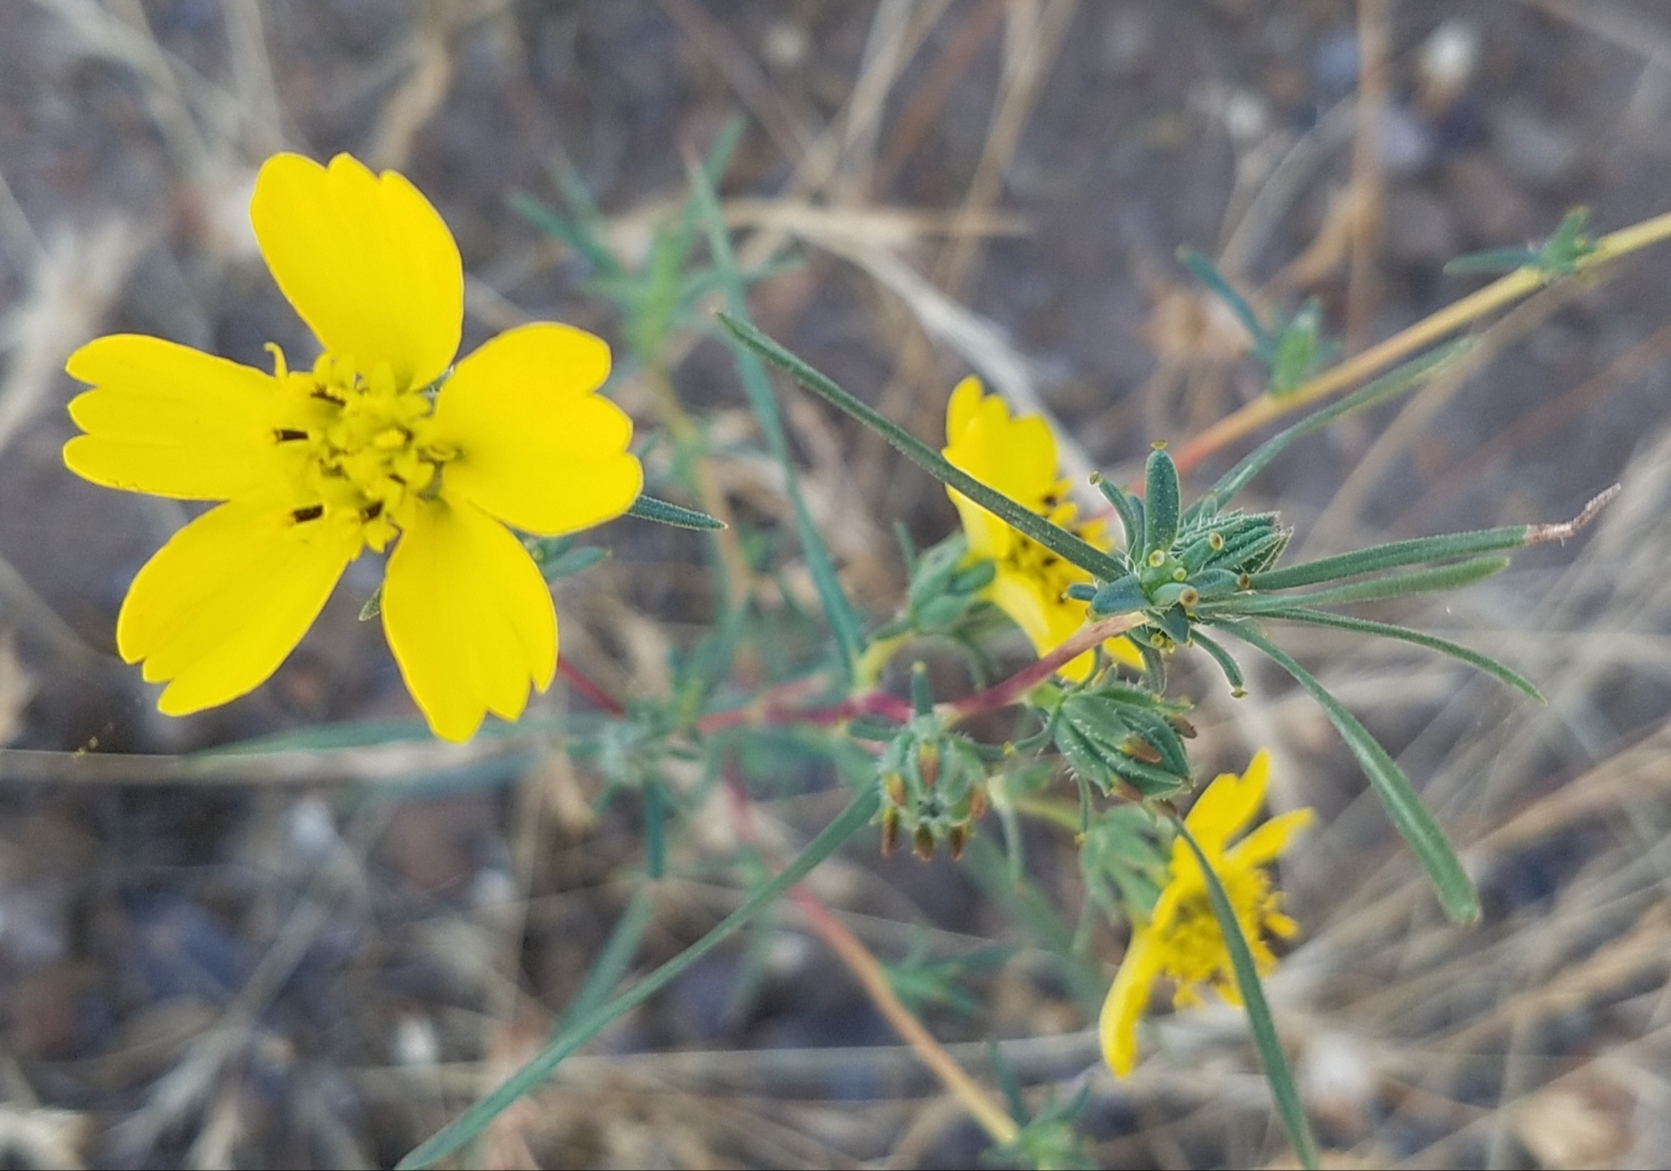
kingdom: Plantae
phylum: Tracheophyta
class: Magnoliopsida
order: Asterales
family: Asteraceae
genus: Calycadenia
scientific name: Calycadenia truncata
